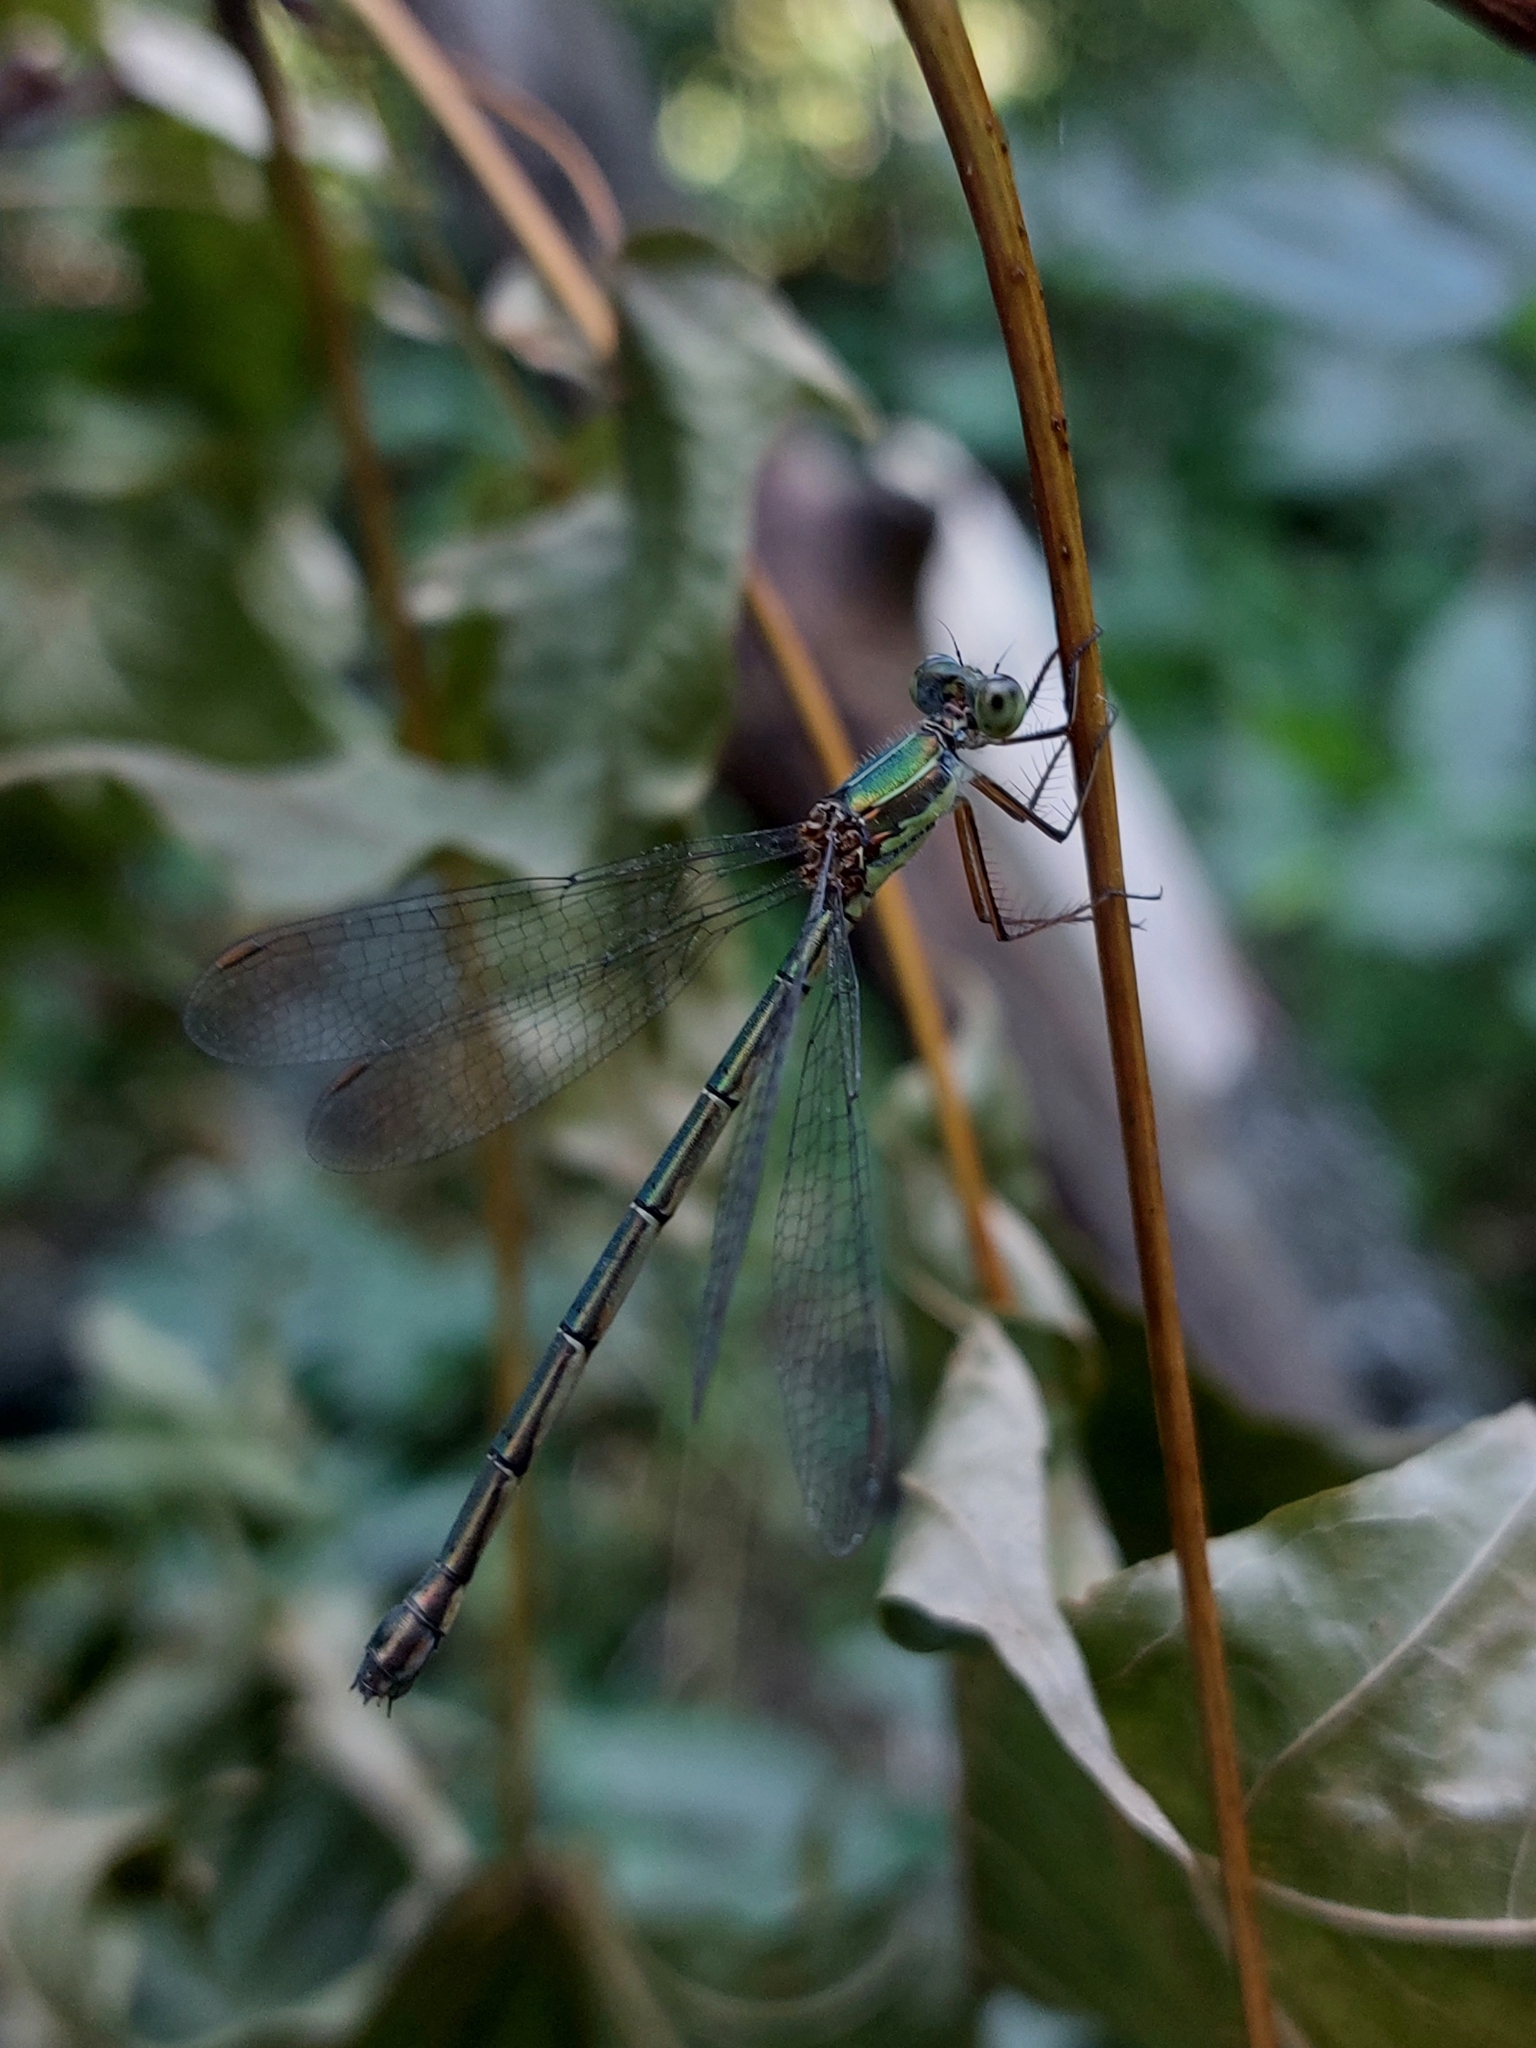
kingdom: Animalia
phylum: Arthropoda
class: Insecta
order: Odonata
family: Lestidae
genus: Chalcolestes
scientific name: Chalcolestes parvidens
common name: Eastern willow spreadwing
